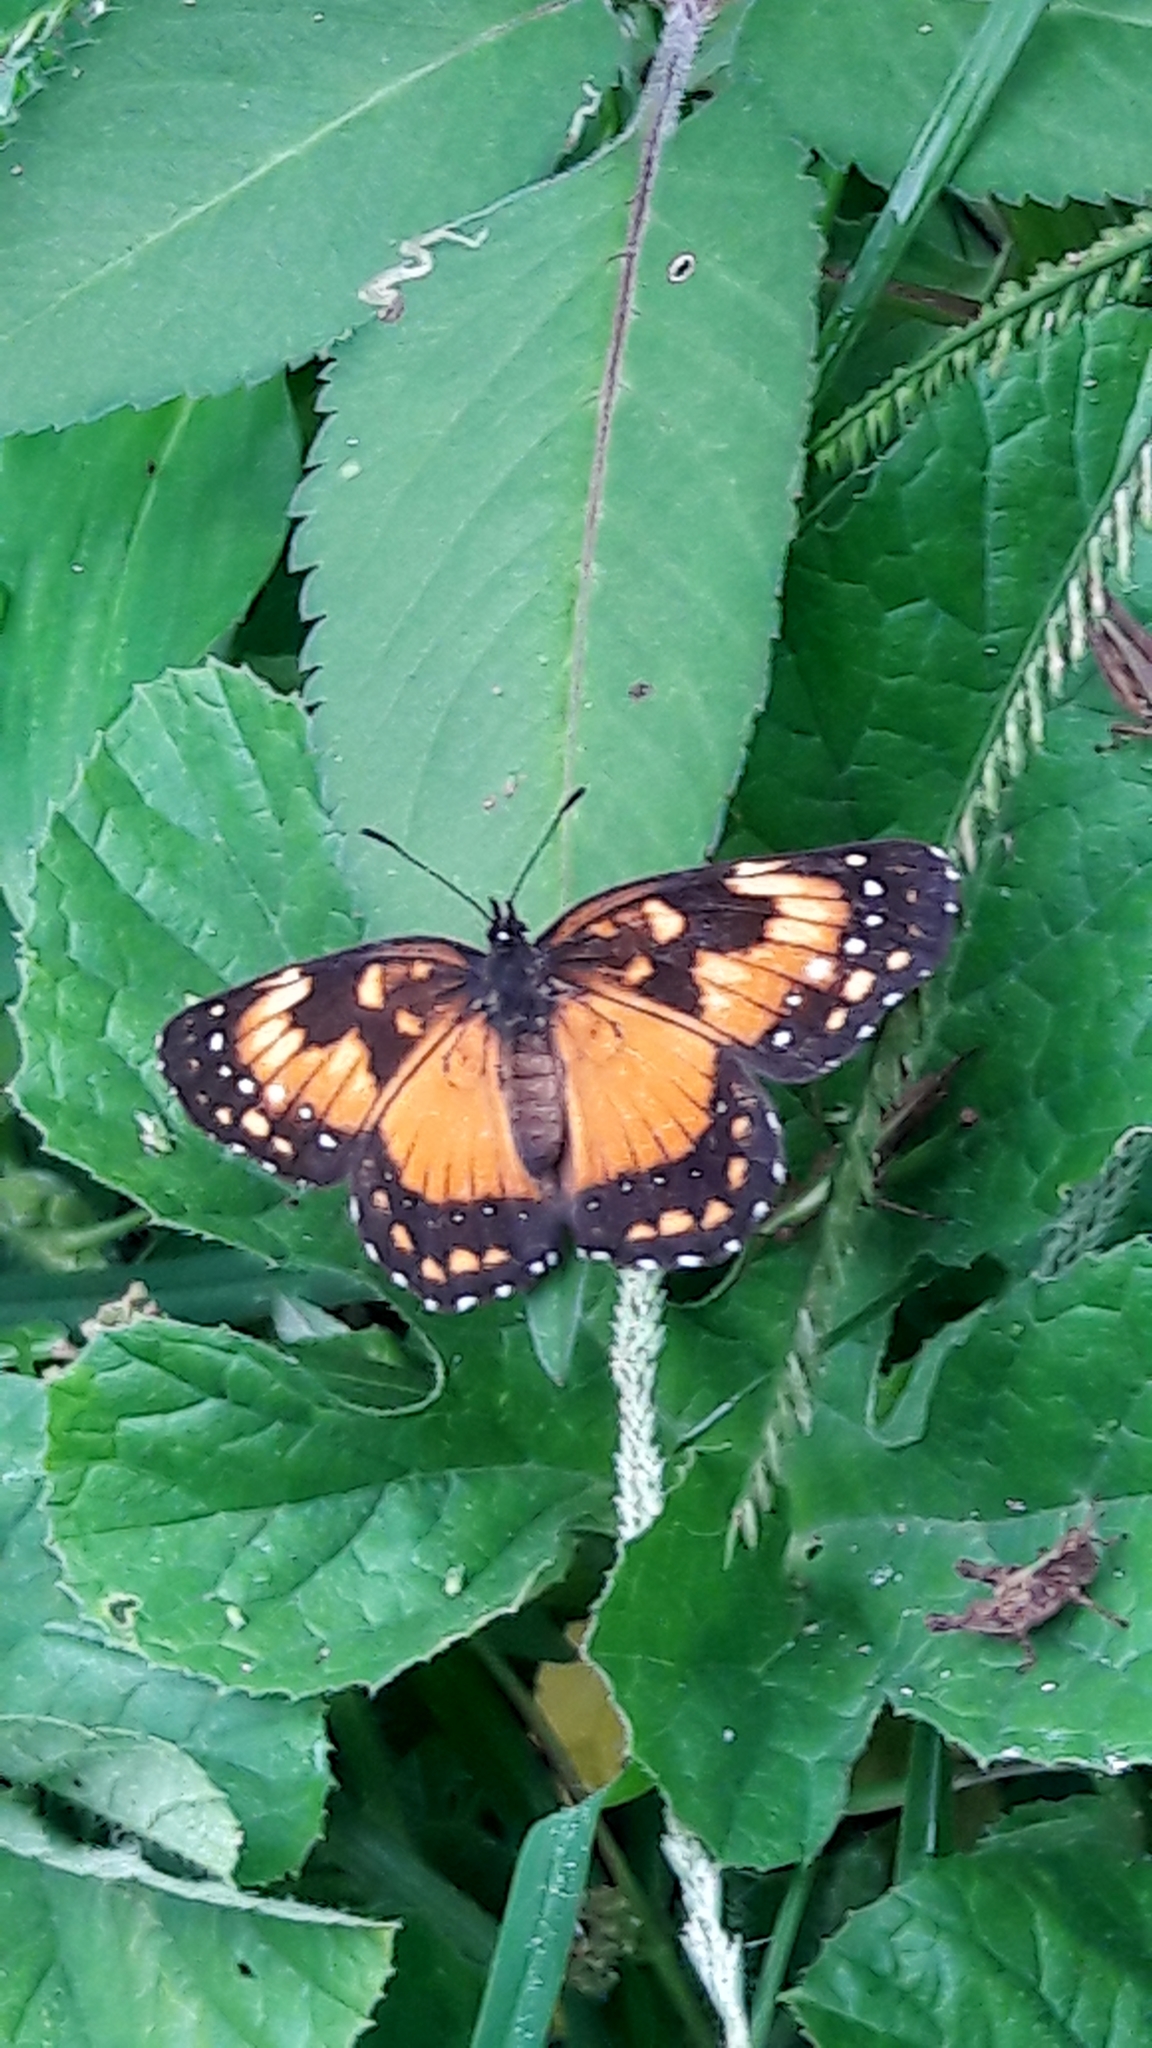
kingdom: Animalia
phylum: Arthropoda
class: Insecta
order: Lepidoptera
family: Nymphalidae
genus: Chlosyne
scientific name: Chlosyne lacinia
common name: Bordered patch
